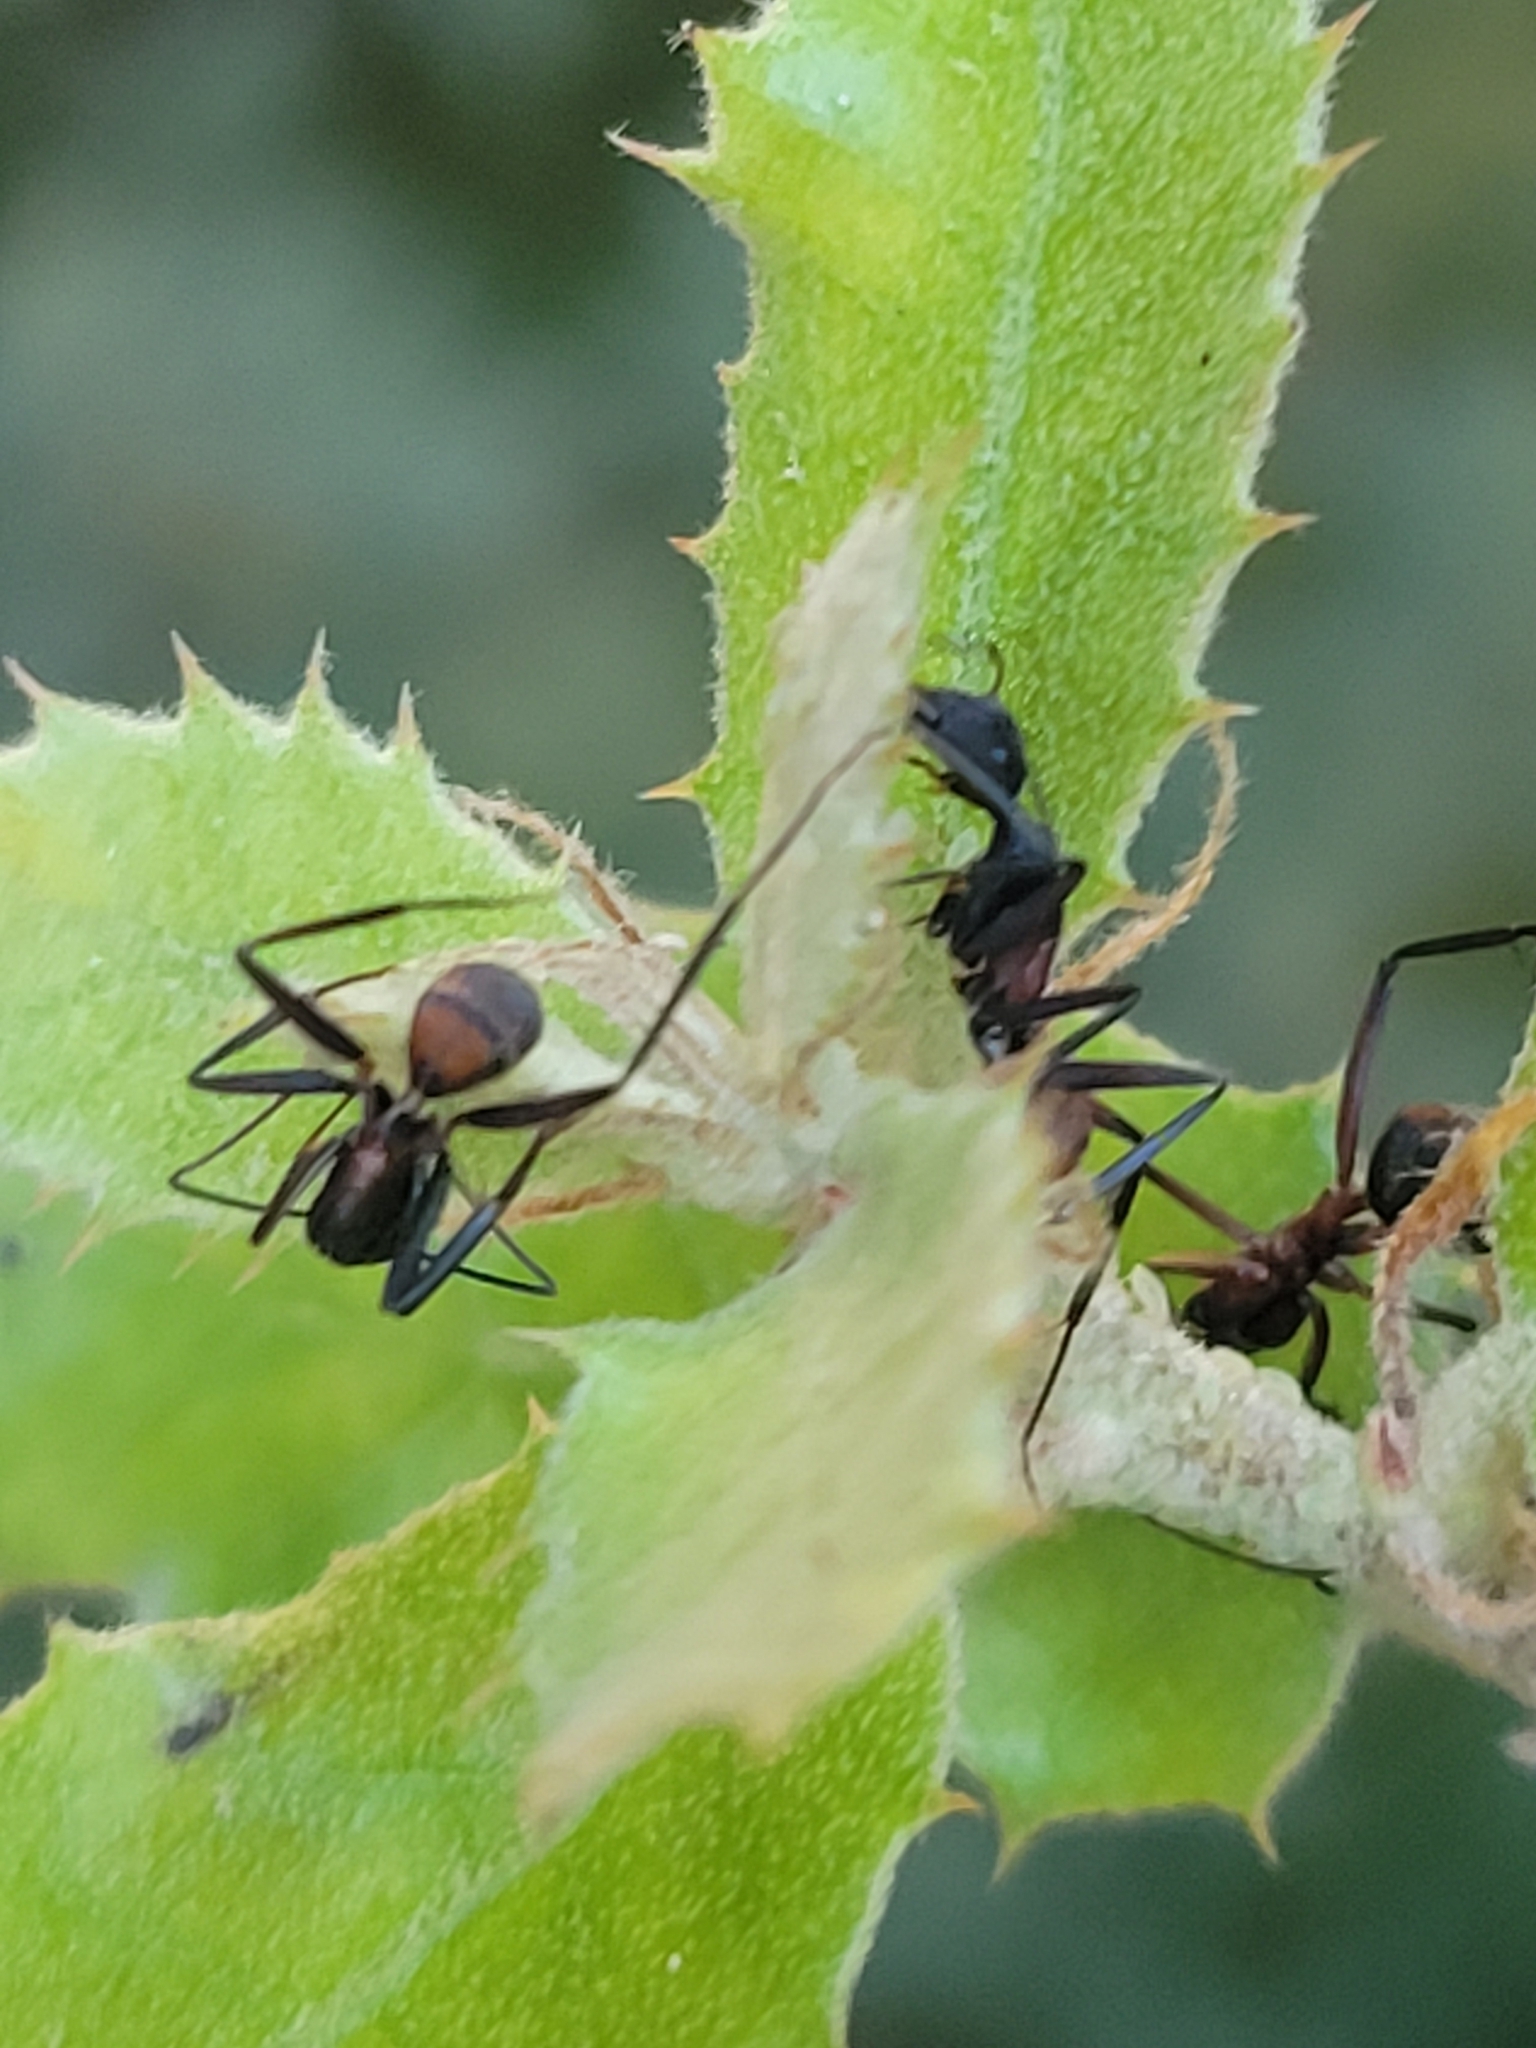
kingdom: Animalia
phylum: Arthropoda
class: Insecta
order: Hymenoptera
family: Formicidae
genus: Camponotus
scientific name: Camponotus cruentatus
